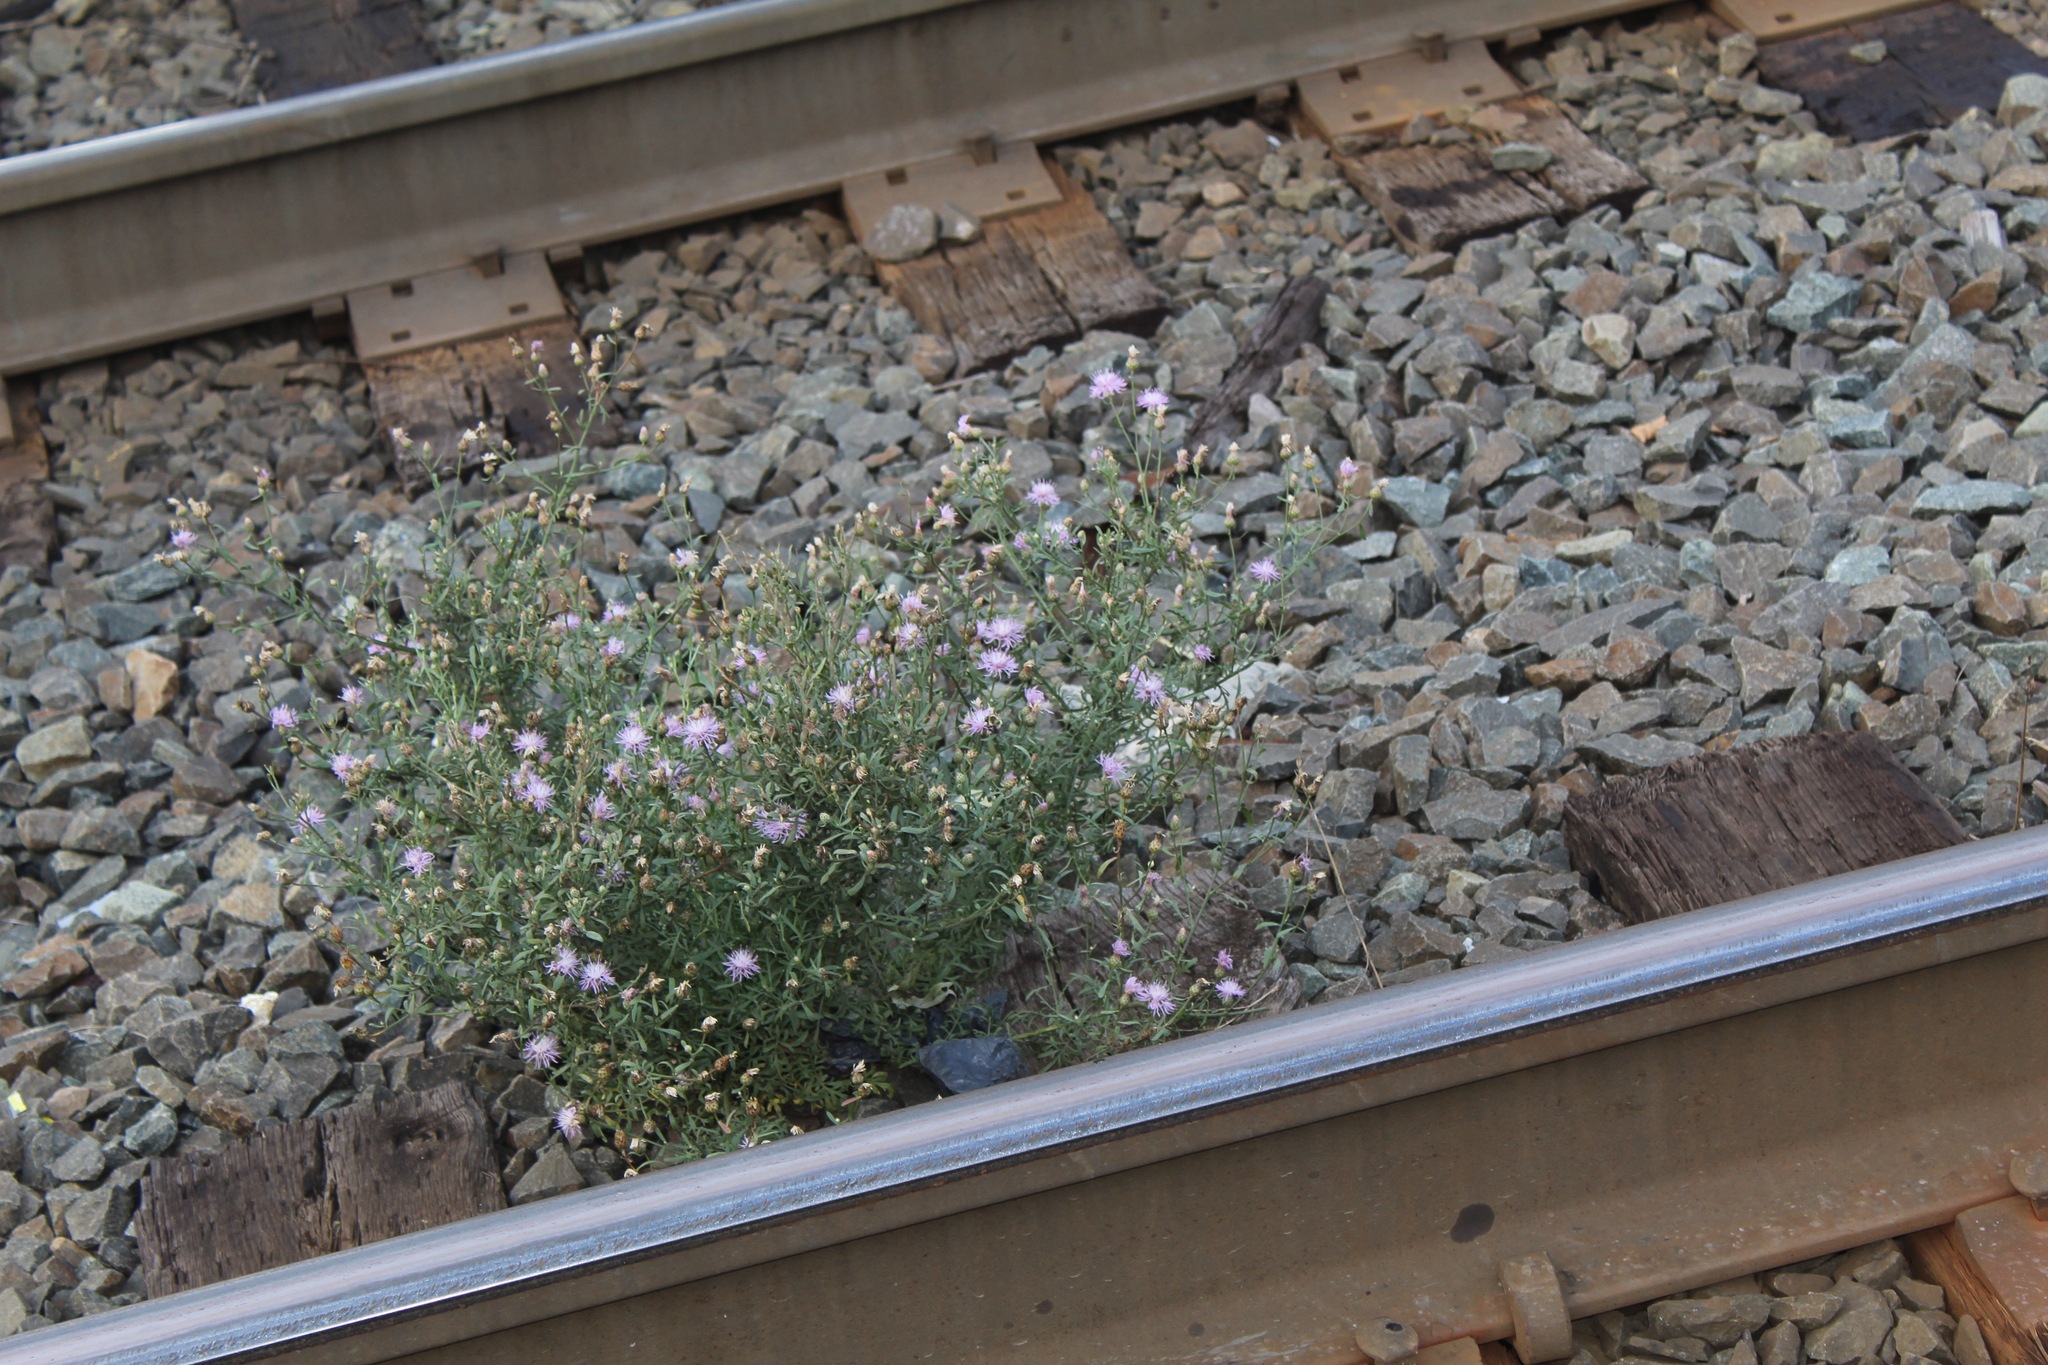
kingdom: Animalia
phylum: Arthropoda
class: Insecta
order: Hymenoptera
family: Apidae
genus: Bombus
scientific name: Bombus impatiens
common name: Common eastern bumble bee
